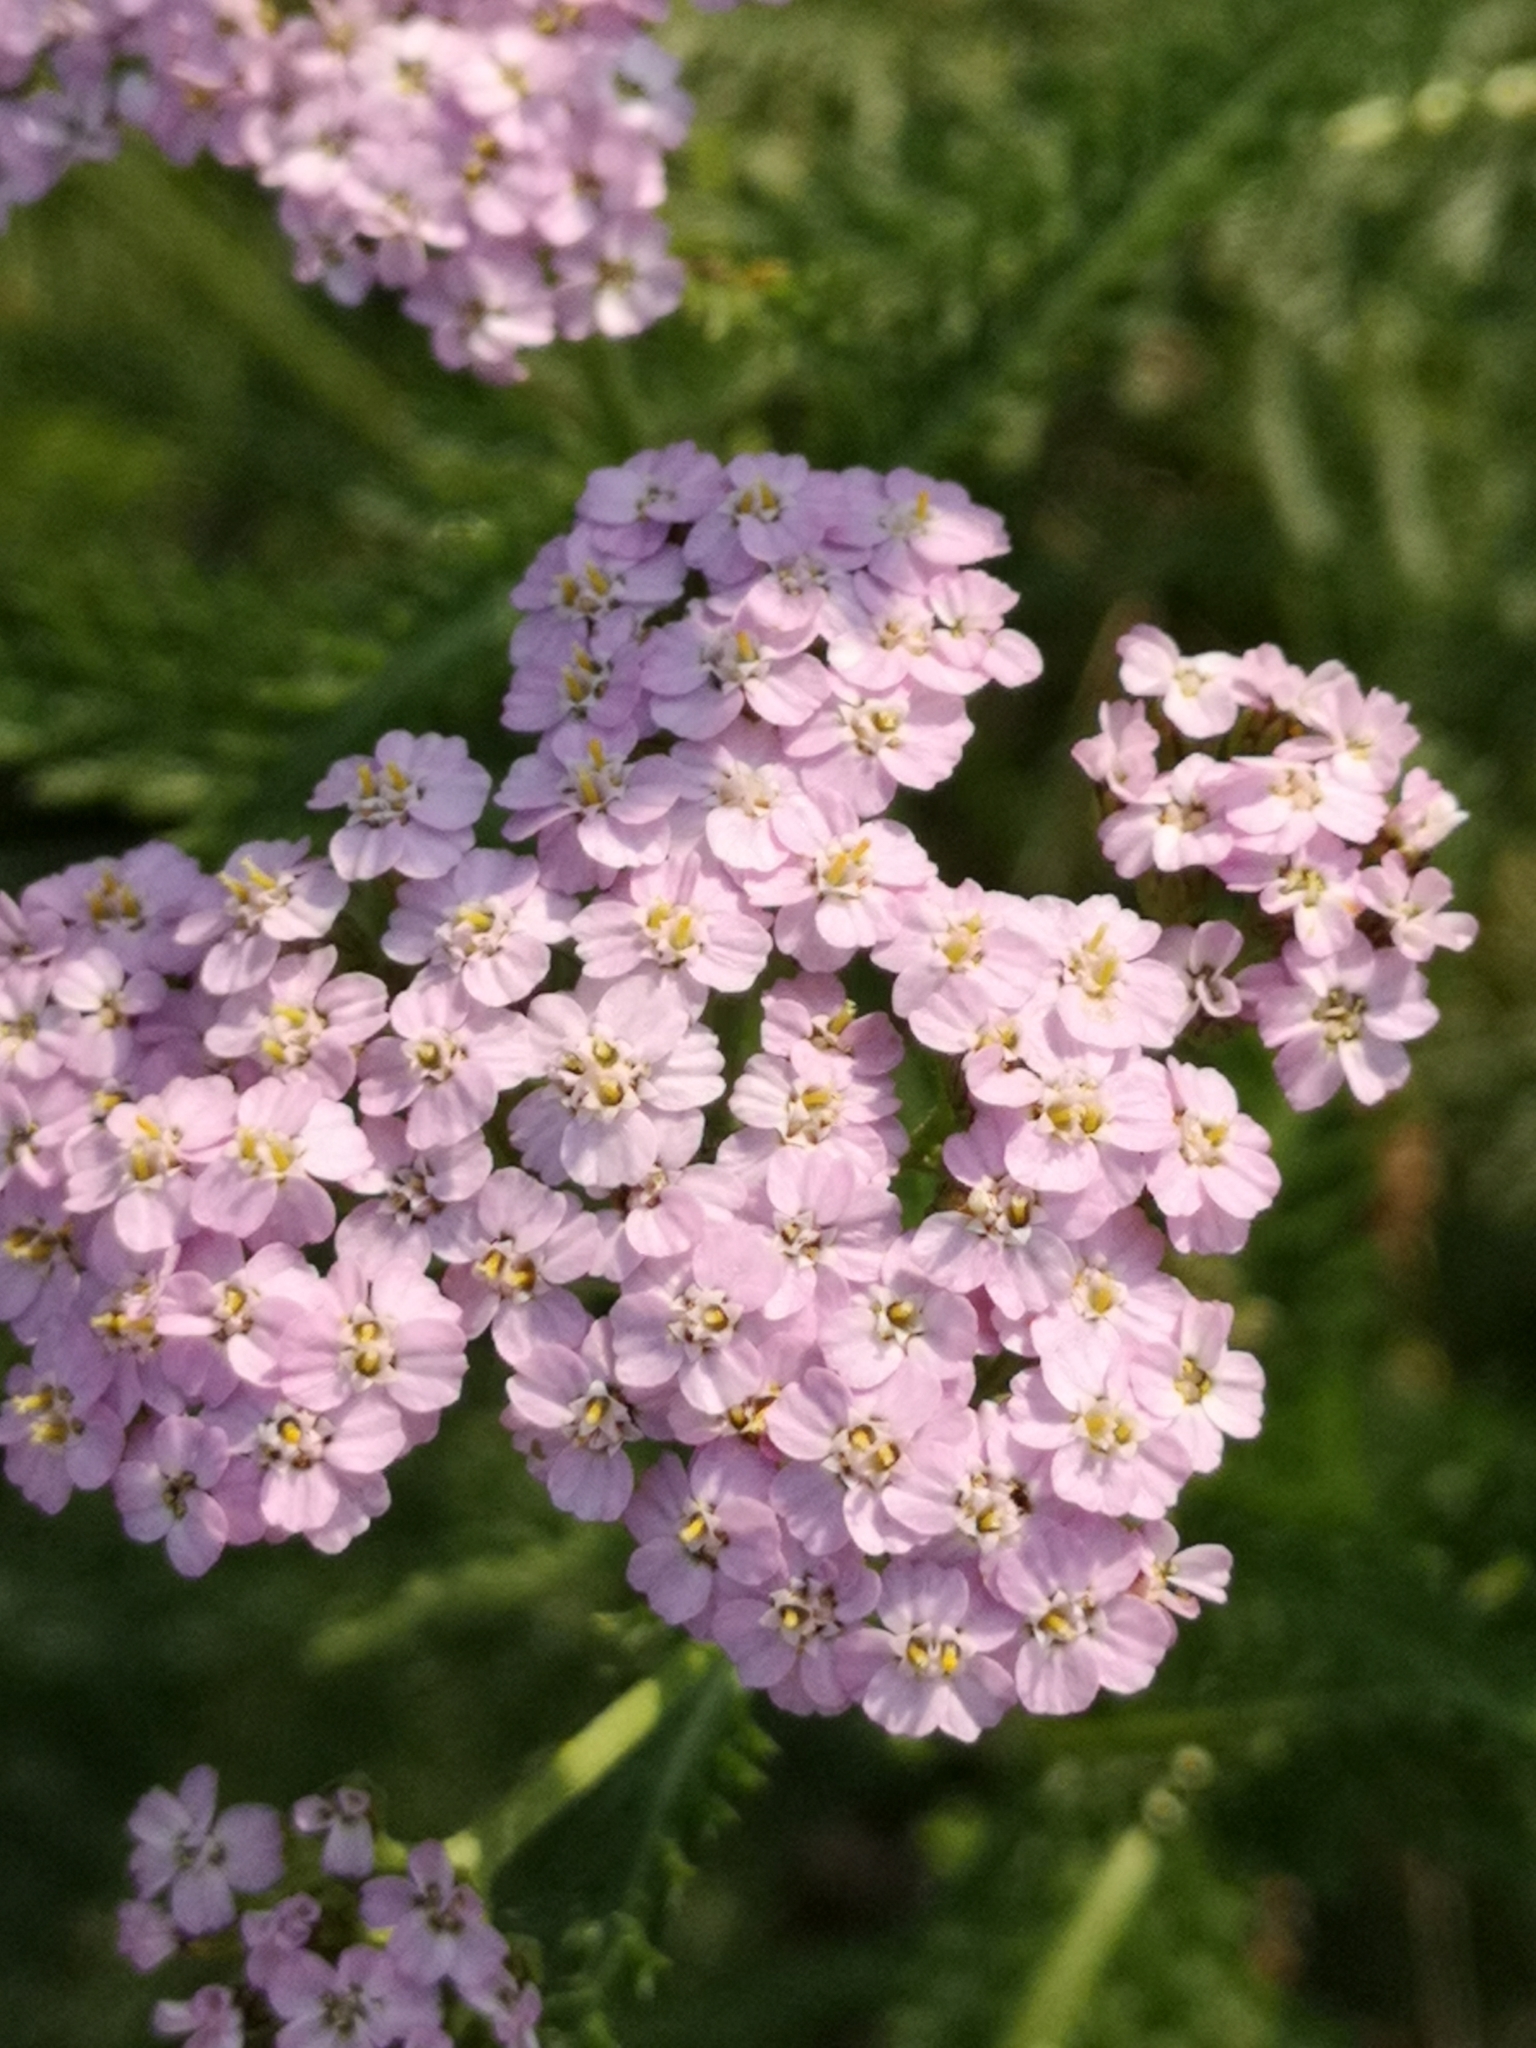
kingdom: Plantae
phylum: Tracheophyta
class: Magnoliopsida
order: Asterales
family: Asteraceae
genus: Achillea
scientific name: Achillea millefolium
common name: Yarrow
